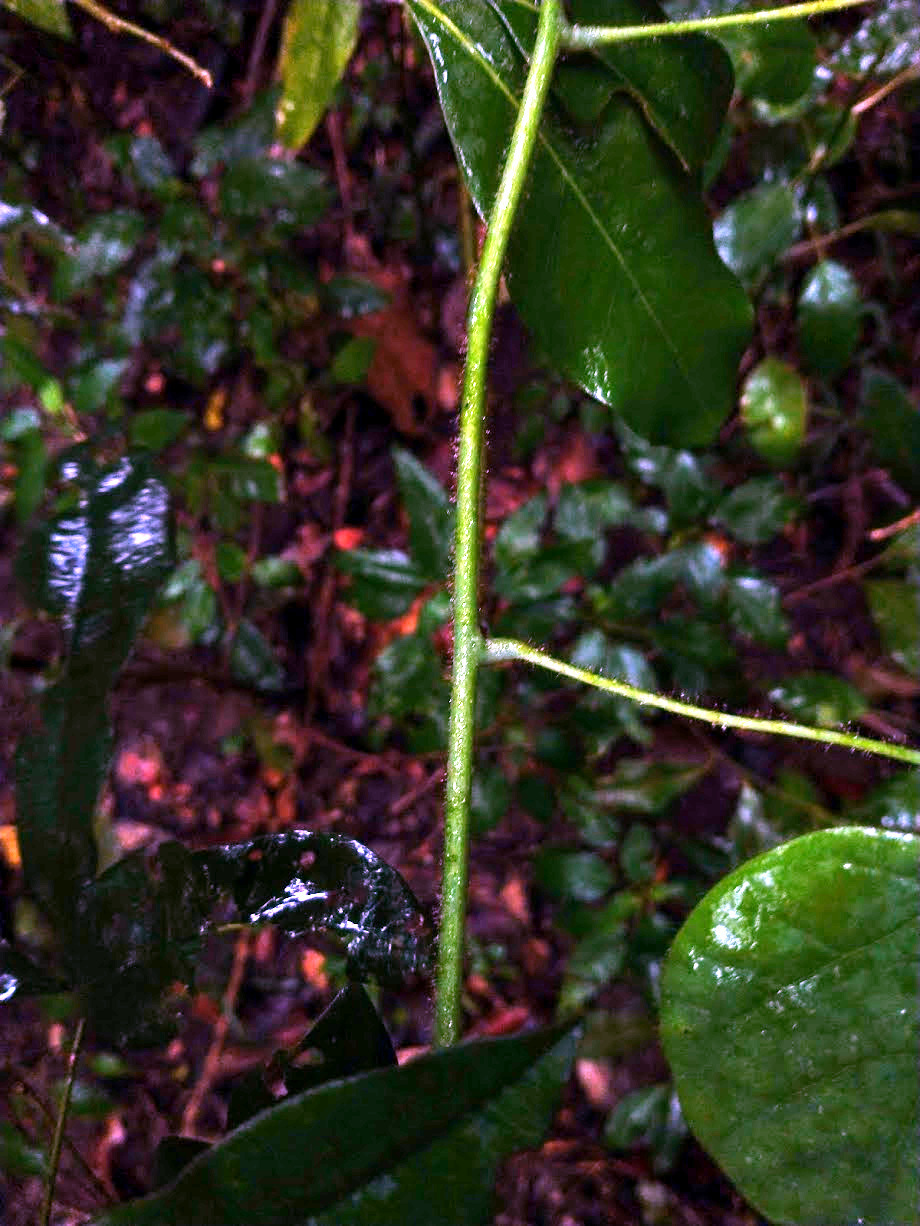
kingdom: Plantae
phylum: Tracheophyta
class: Magnoliopsida
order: Ranunculales
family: Menispermaceae
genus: Legnephora
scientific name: Legnephora moorei
